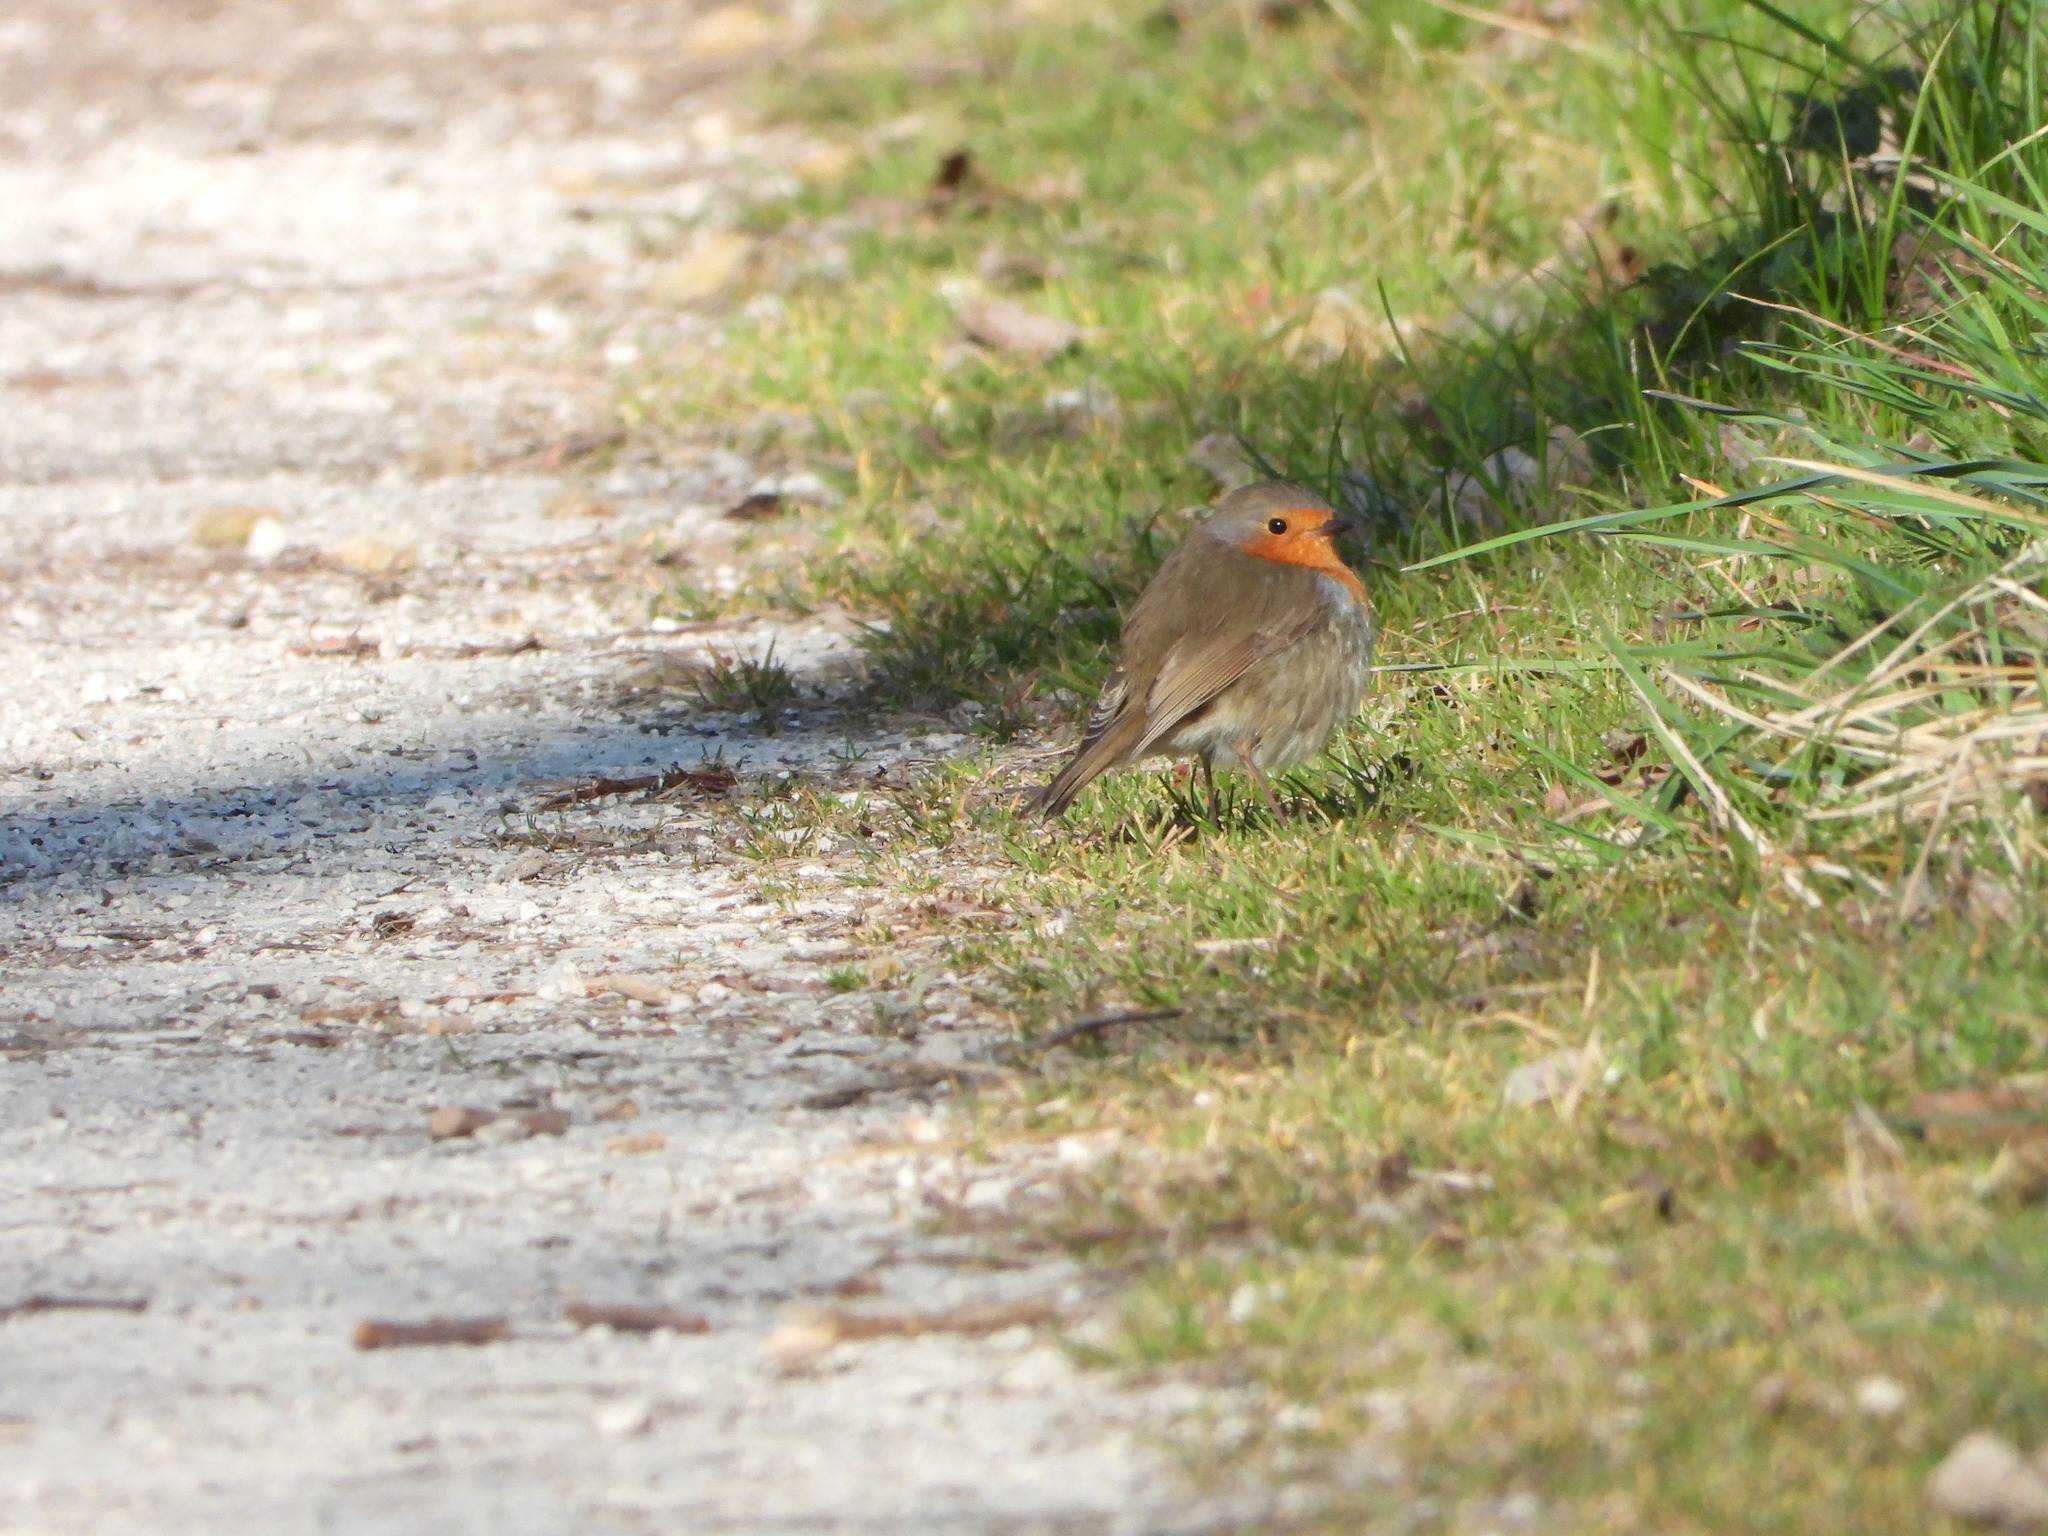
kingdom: Animalia
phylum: Chordata
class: Aves
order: Passeriformes
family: Muscicapidae
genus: Erithacus
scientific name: Erithacus rubecula
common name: European robin
